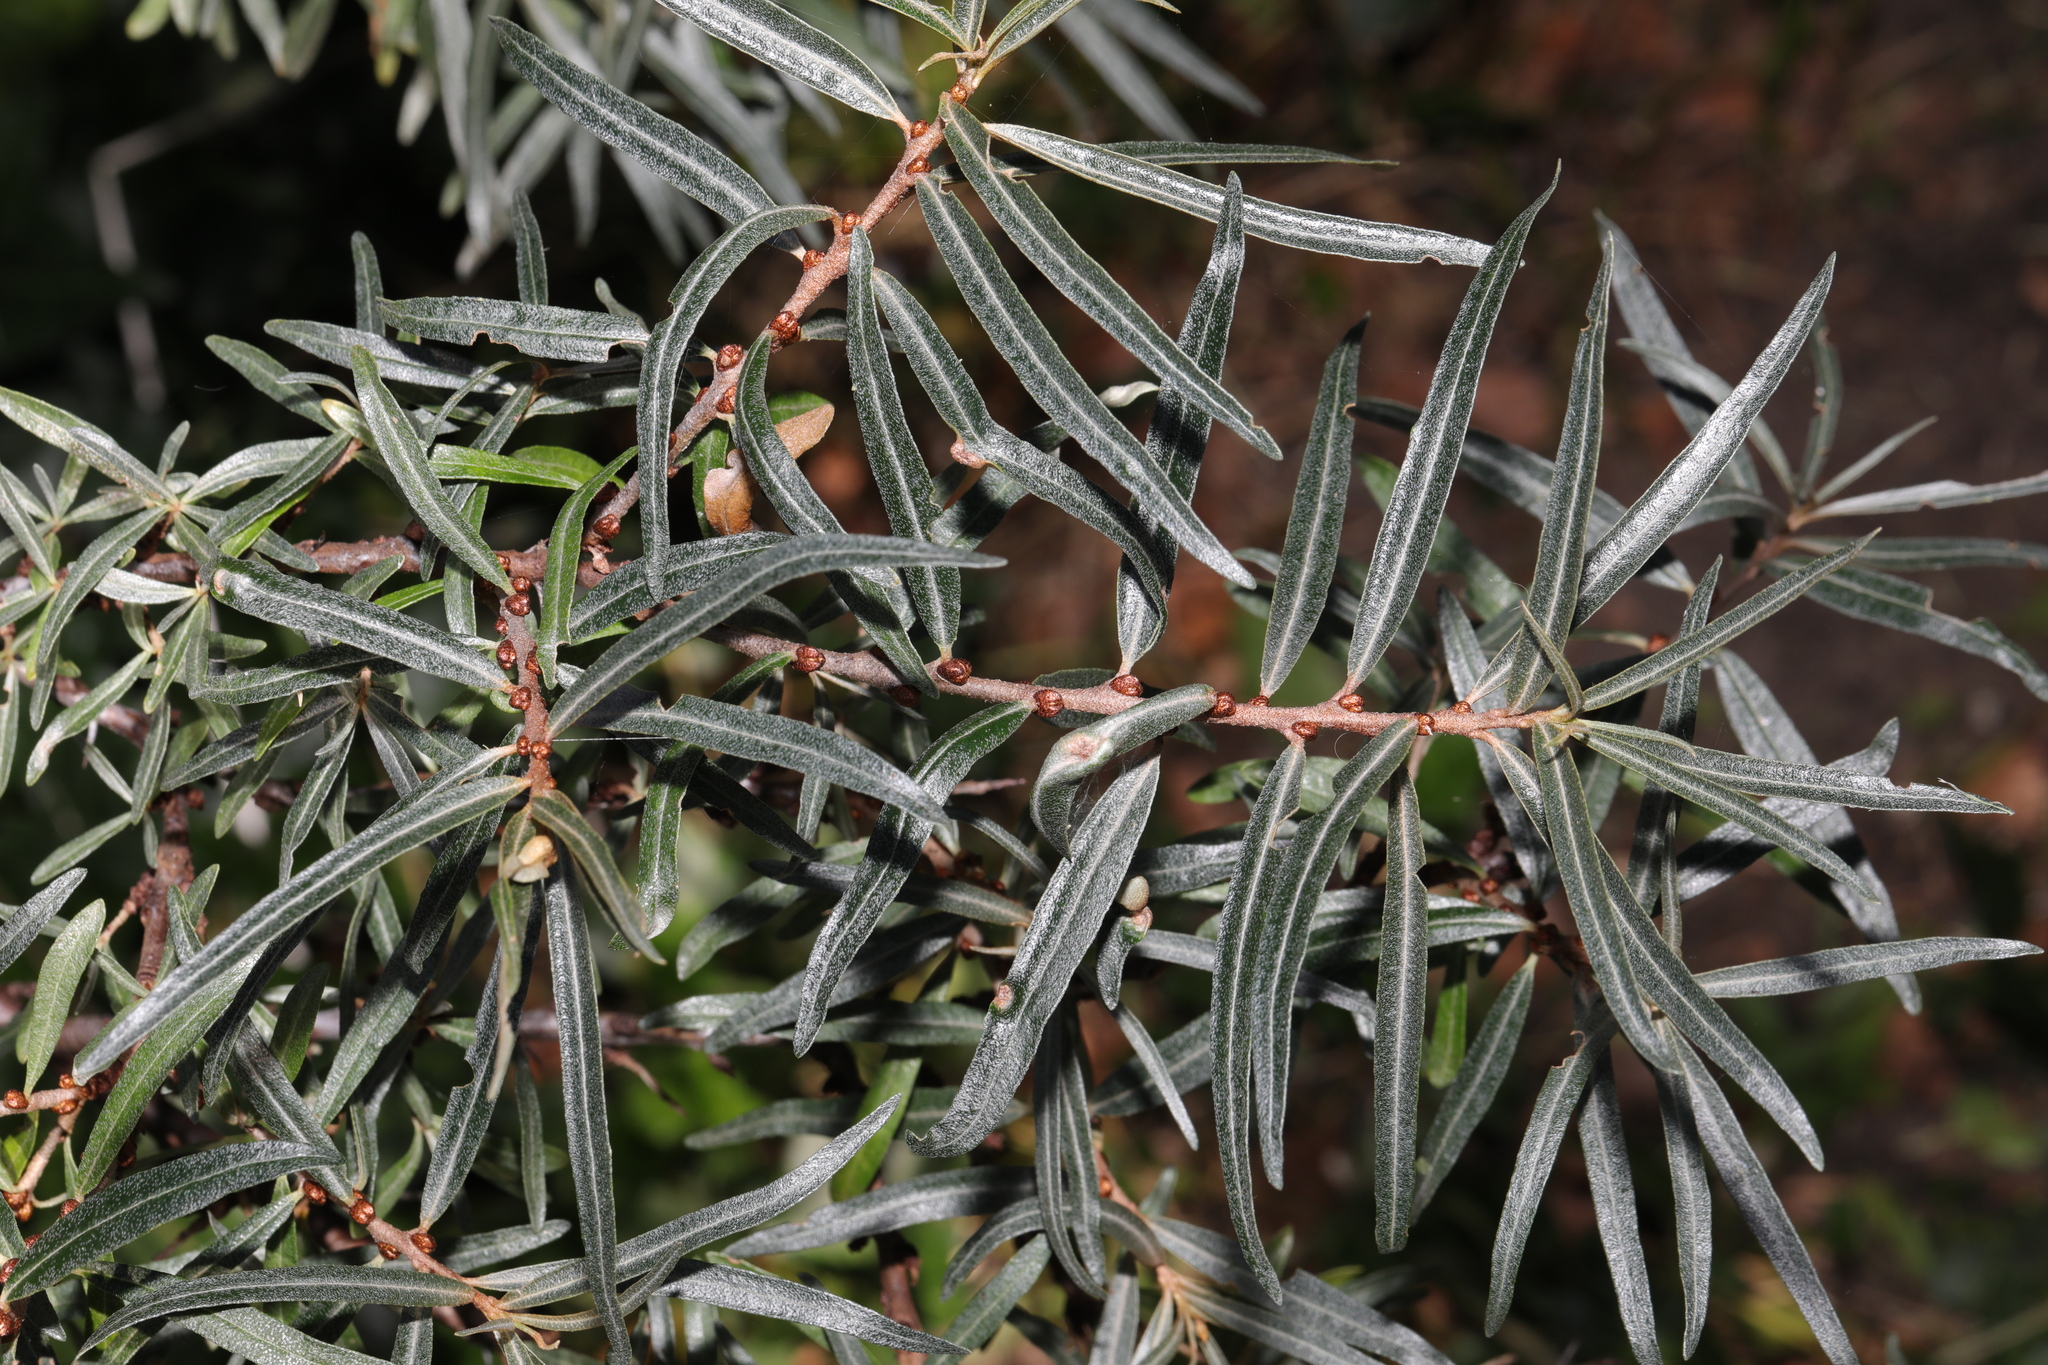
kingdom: Plantae
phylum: Tracheophyta
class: Magnoliopsida
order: Rosales
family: Elaeagnaceae
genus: Hippophae
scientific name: Hippophae rhamnoides
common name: Sea-buckthorn
